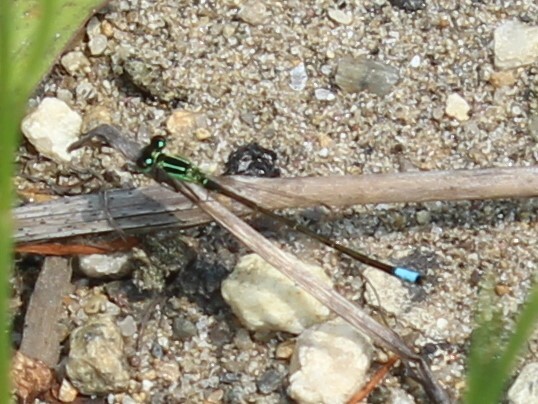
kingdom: Animalia
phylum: Arthropoda
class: Insecta
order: Odonata
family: Coenagrionidae
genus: Ischnura
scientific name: Ischnura verticalis
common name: Eastern forktail
